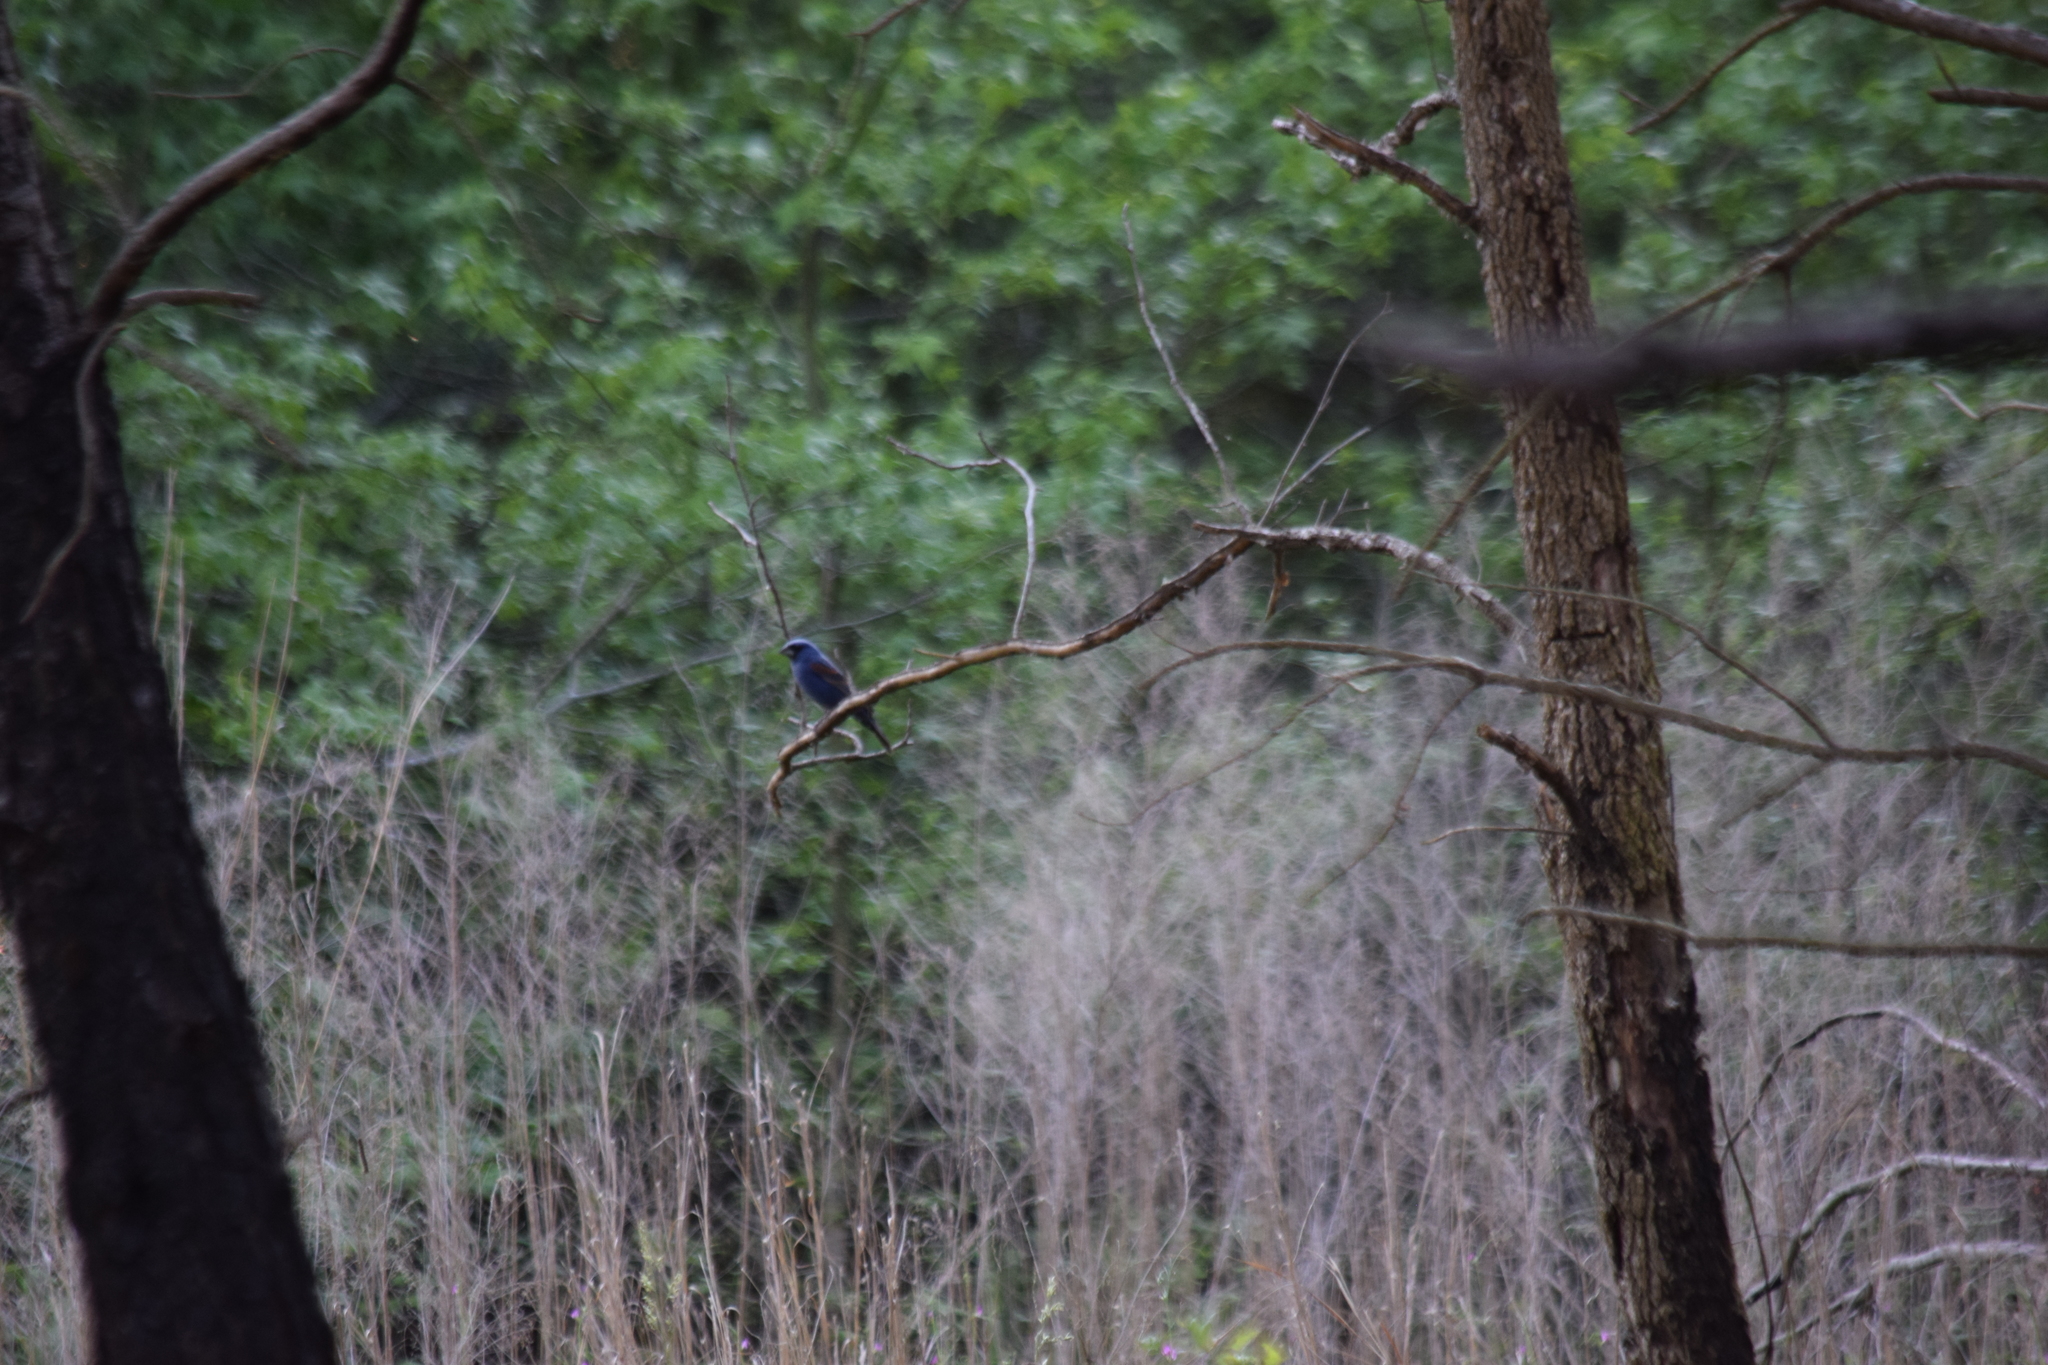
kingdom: Animalia
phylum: Chordata
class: Aves
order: Passeriformes
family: Cardinalidae
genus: Passerina
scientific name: Passerina caerulea
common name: Blue grosbeak
